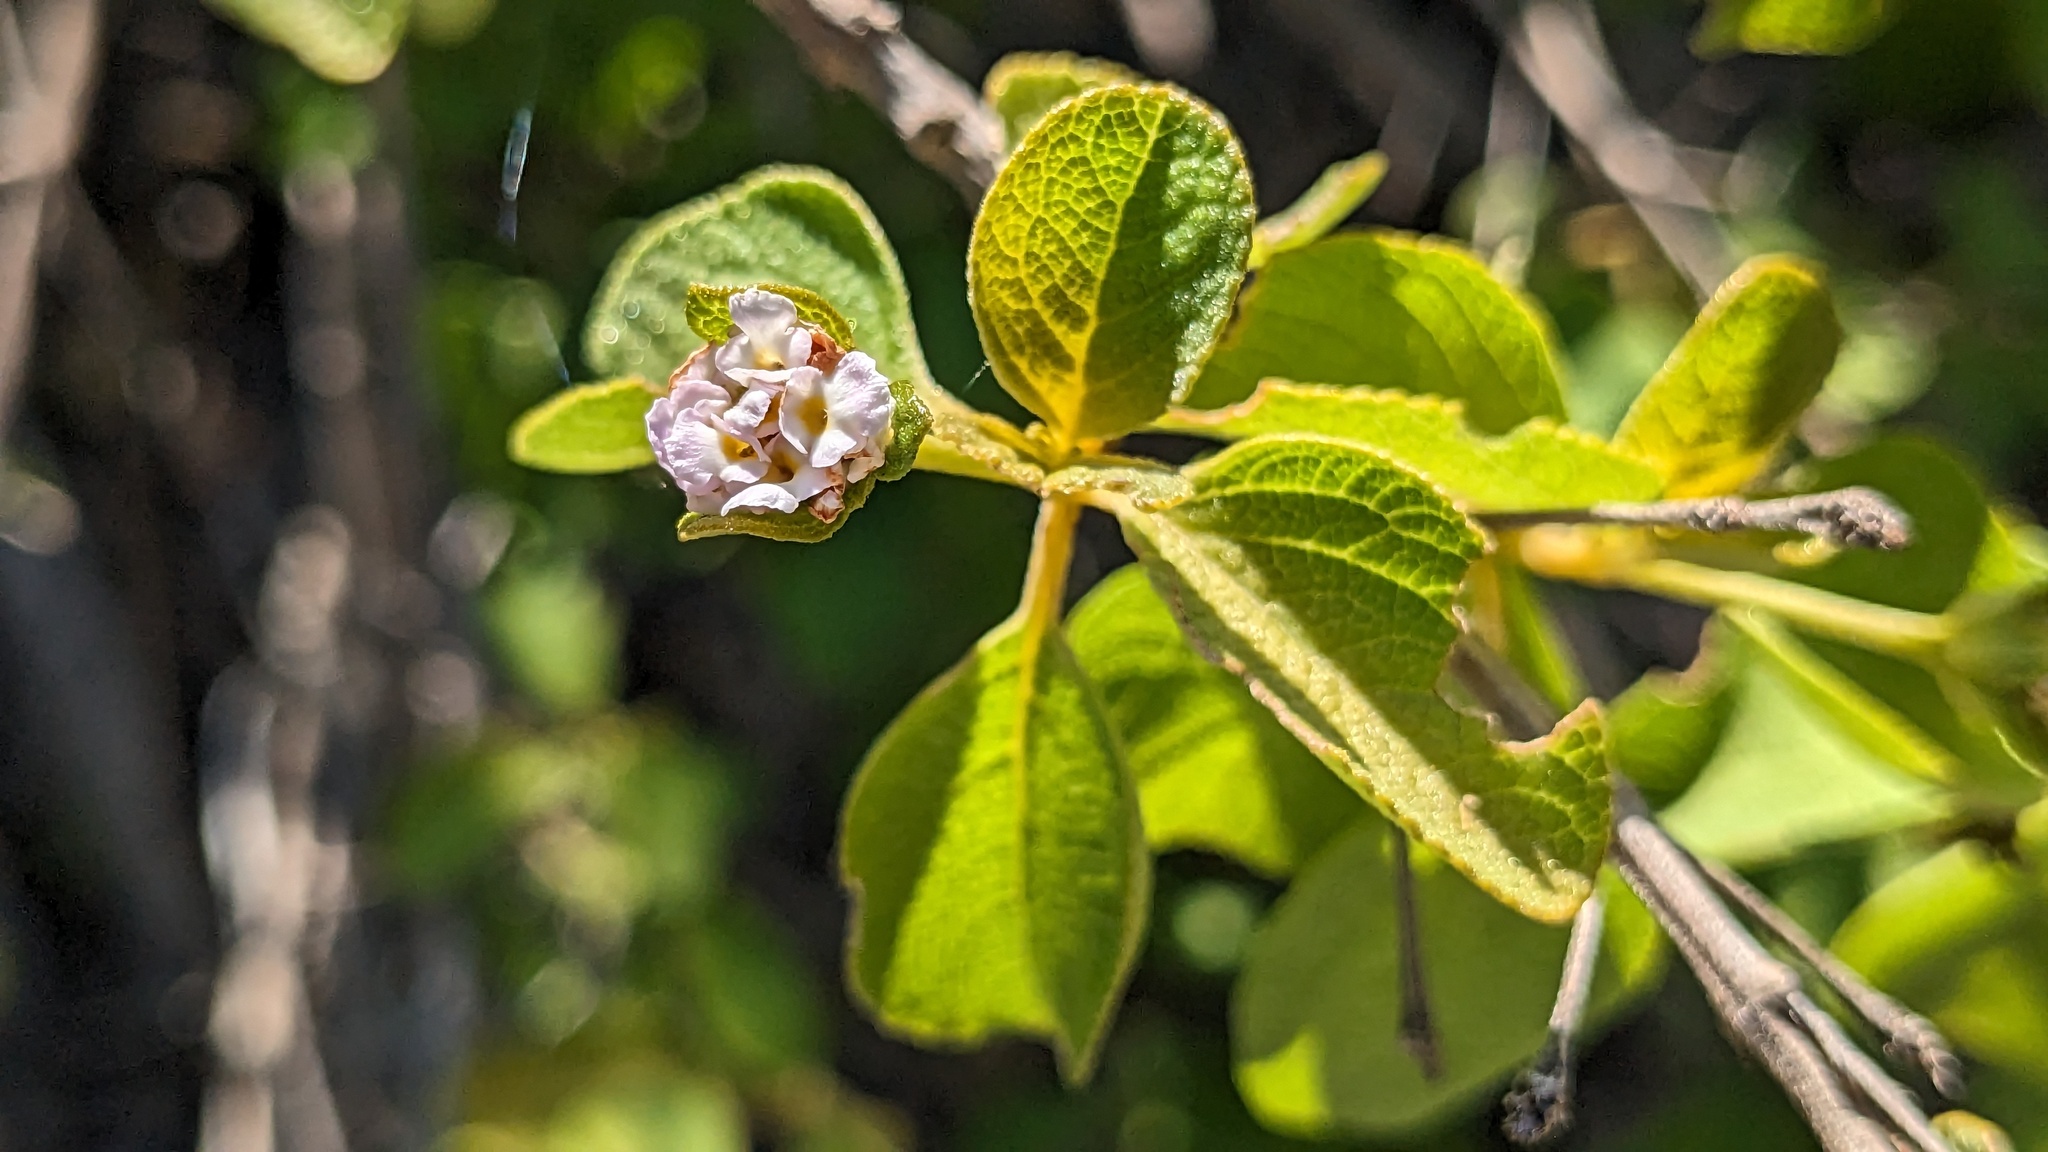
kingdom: Plantae
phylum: Tracheophyta
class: Magnoliopsida
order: Lamiales
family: Verbenaceae
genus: Lantana
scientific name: Lantana involucrata
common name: Black sage
